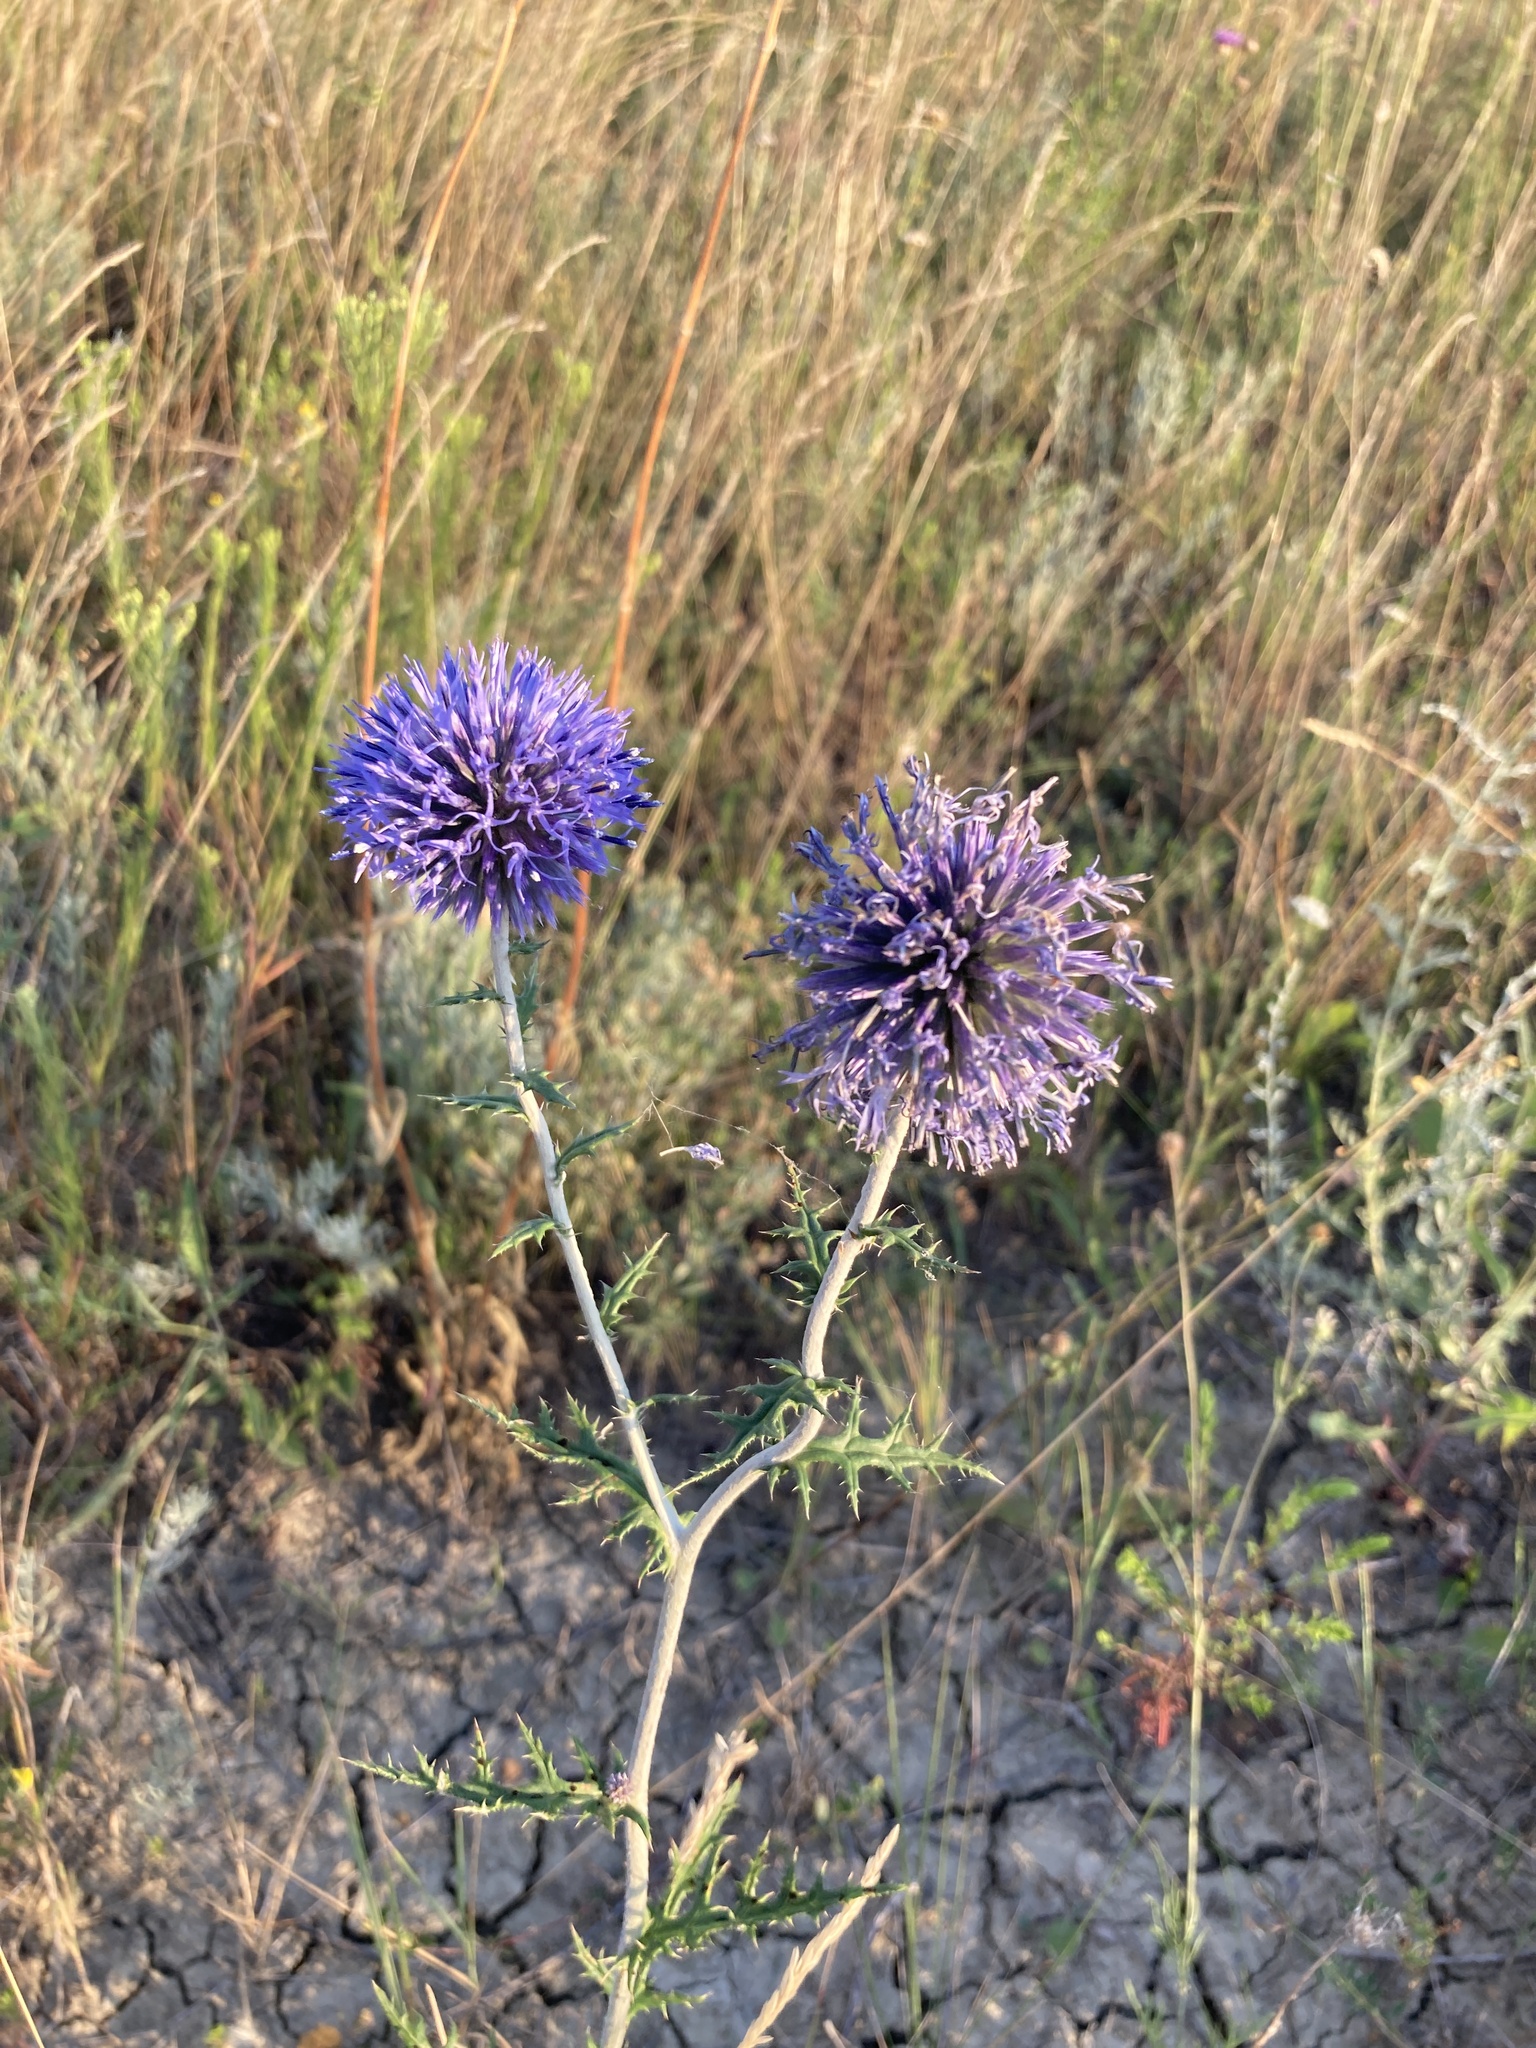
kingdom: Plantae
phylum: Tracheophyta
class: Magnoliopsida
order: Asterales
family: Asteraceae
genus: Echinops
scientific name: Echinops ritro
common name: Globe thistle
